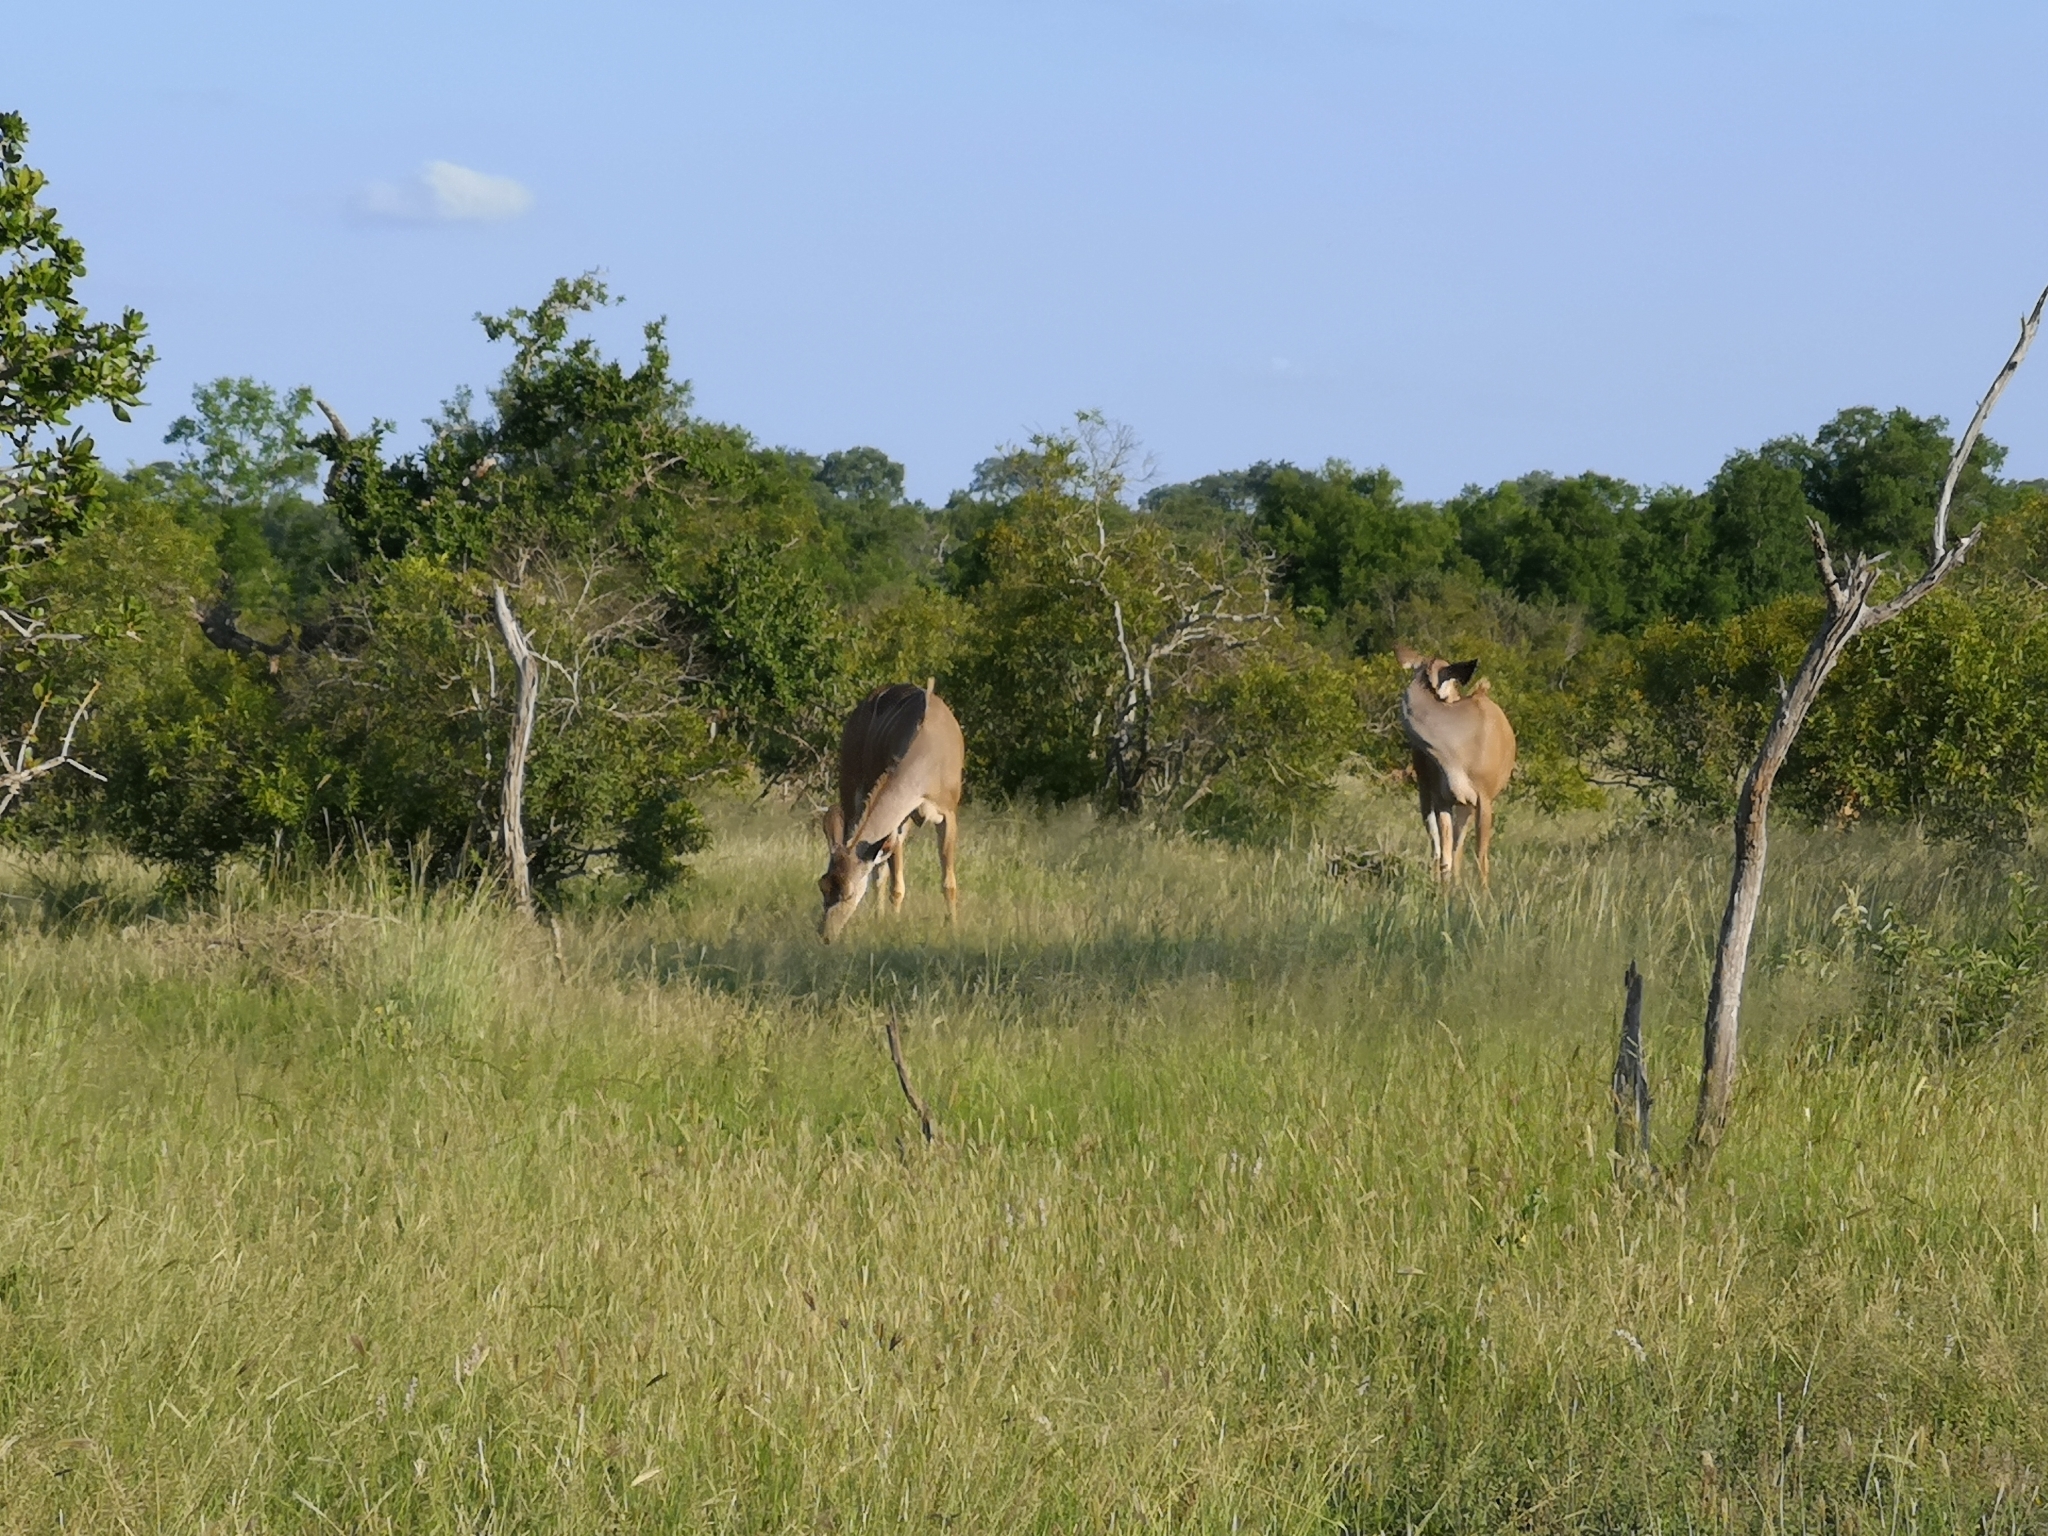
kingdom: Animalia
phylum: Chordata
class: Mammalia
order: Artiodactyla
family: Bovidae
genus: Tragelaphus
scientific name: Tragelaphus strepsiceros
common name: Greater kudu
